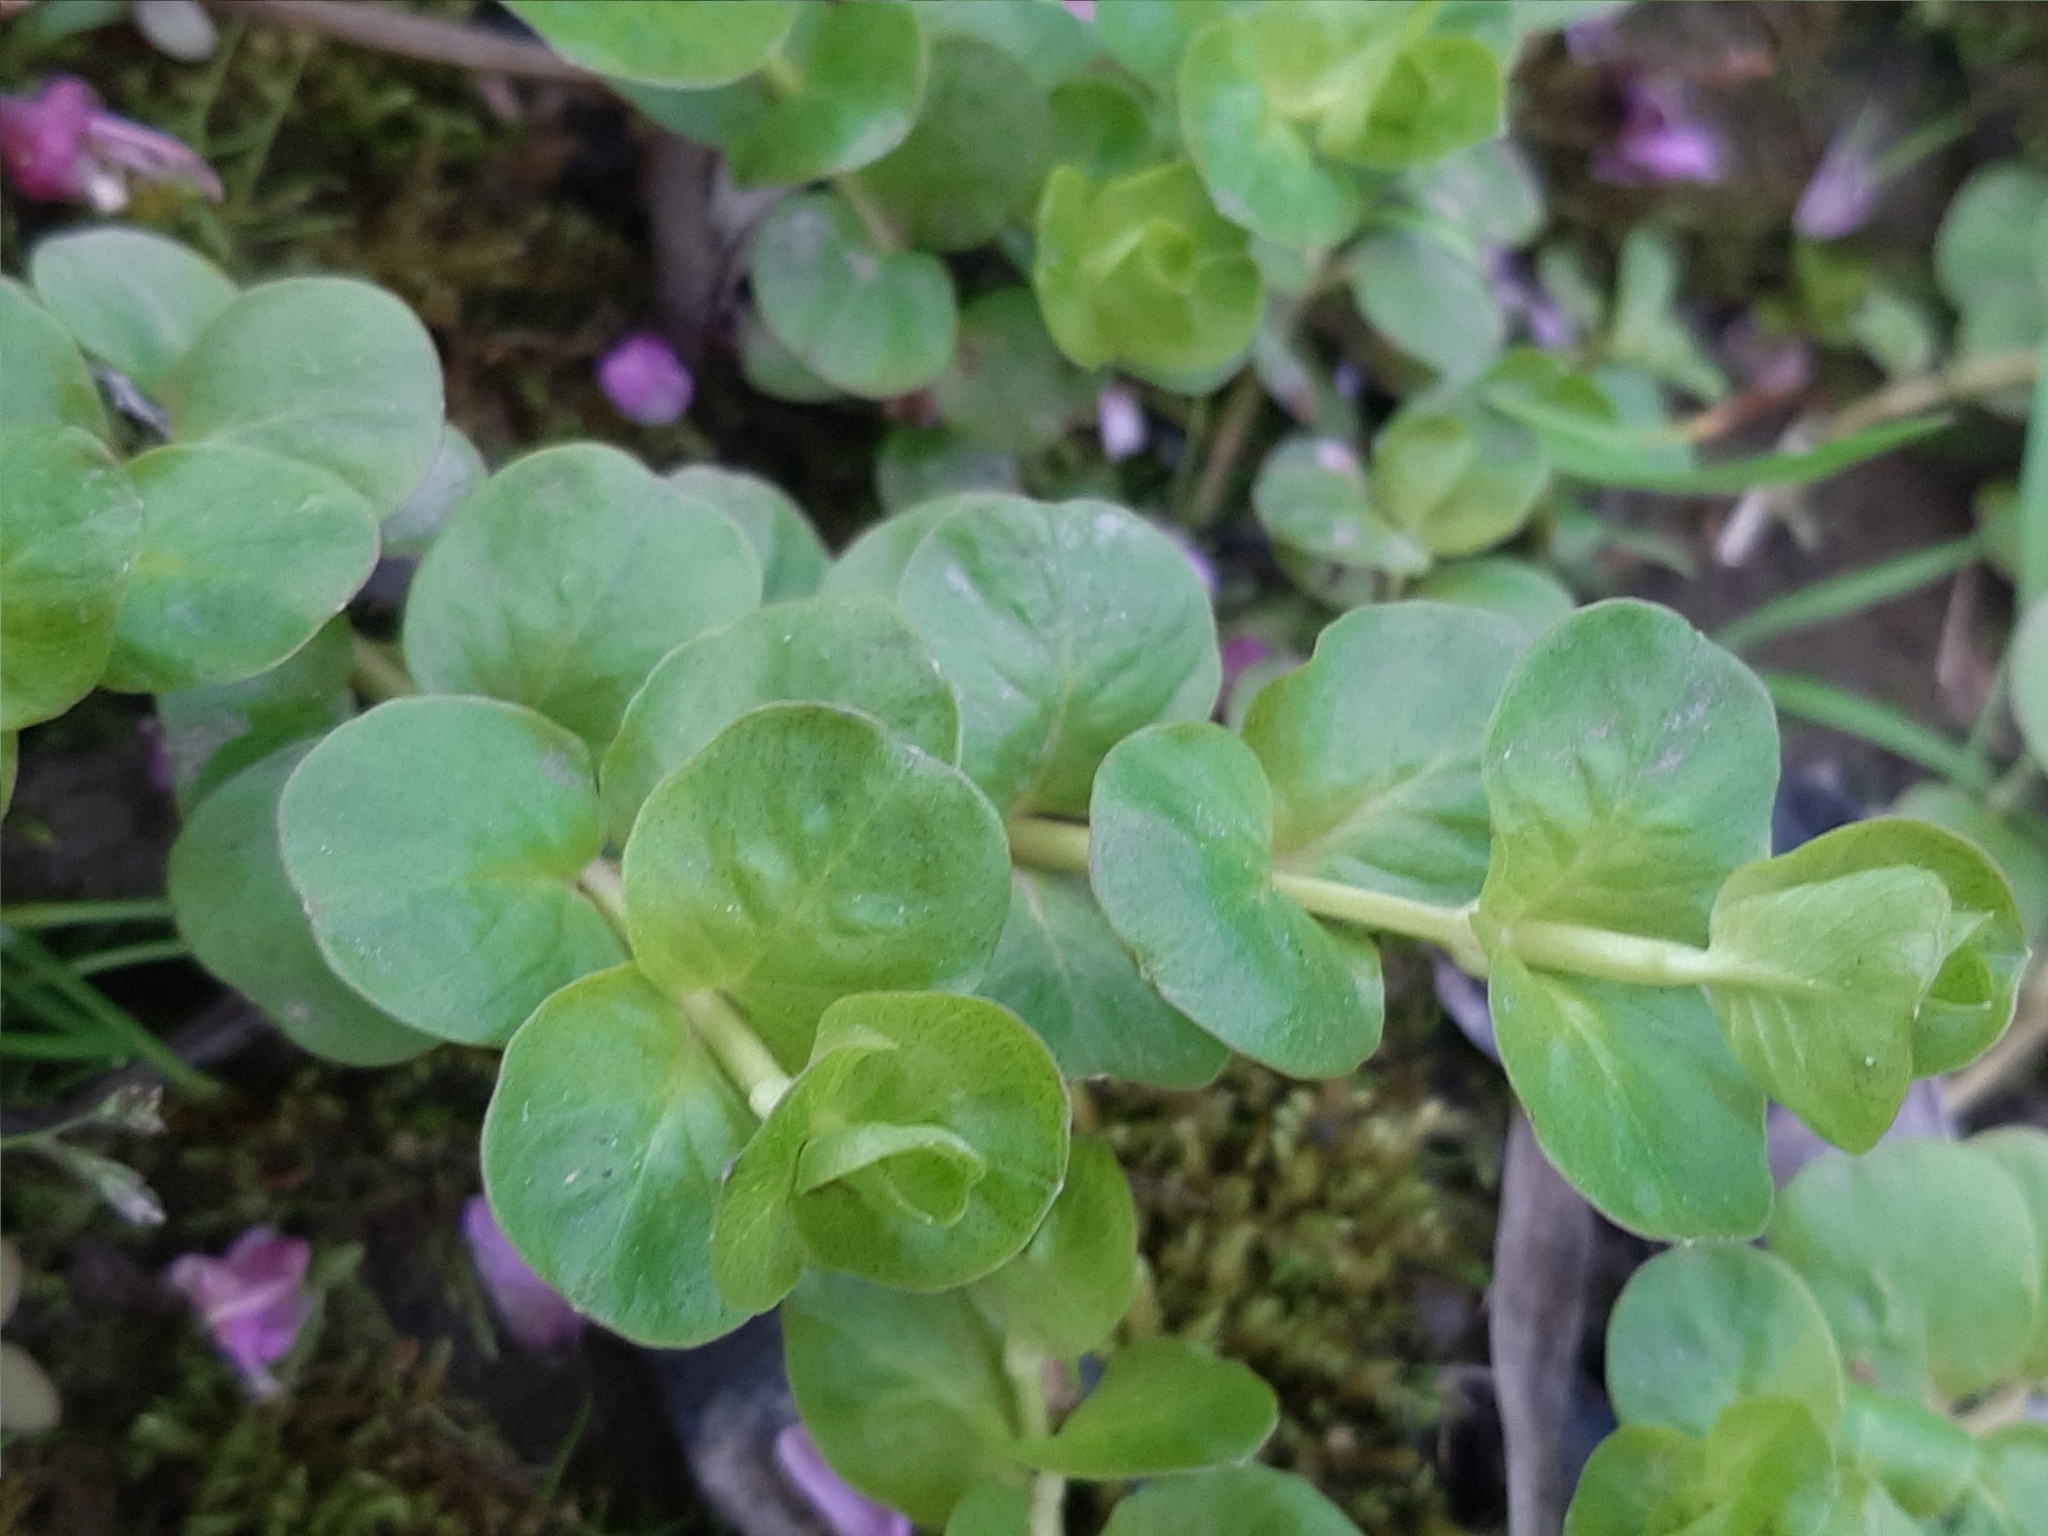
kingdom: Plantae
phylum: Tracheophyta
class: Magnoliopsida
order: Ericales
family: Primulaceae
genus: Lysimachia
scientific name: Lysimachia nummularia
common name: Moneywort
